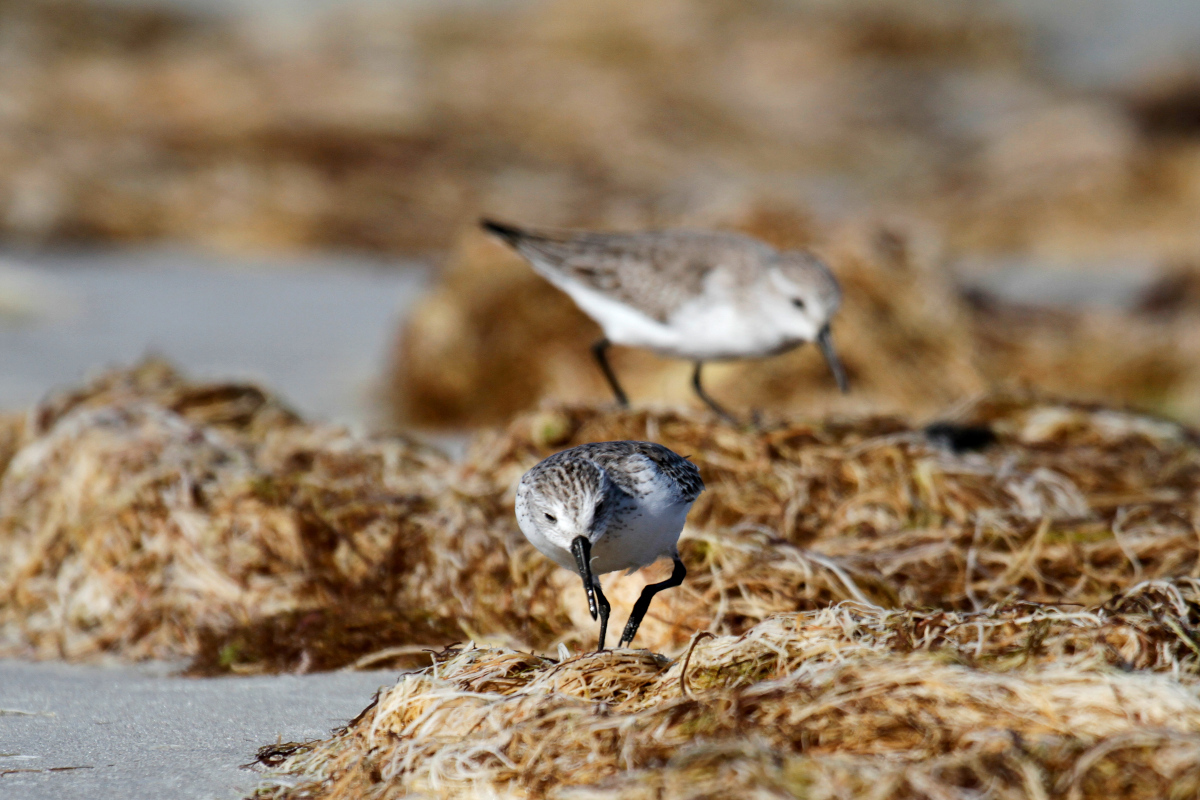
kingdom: Animalia
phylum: Chordata
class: Aves
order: Charadriiformes
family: Scolopacidae
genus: Calidris
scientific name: Calidris mauri
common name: Western sandpiper
